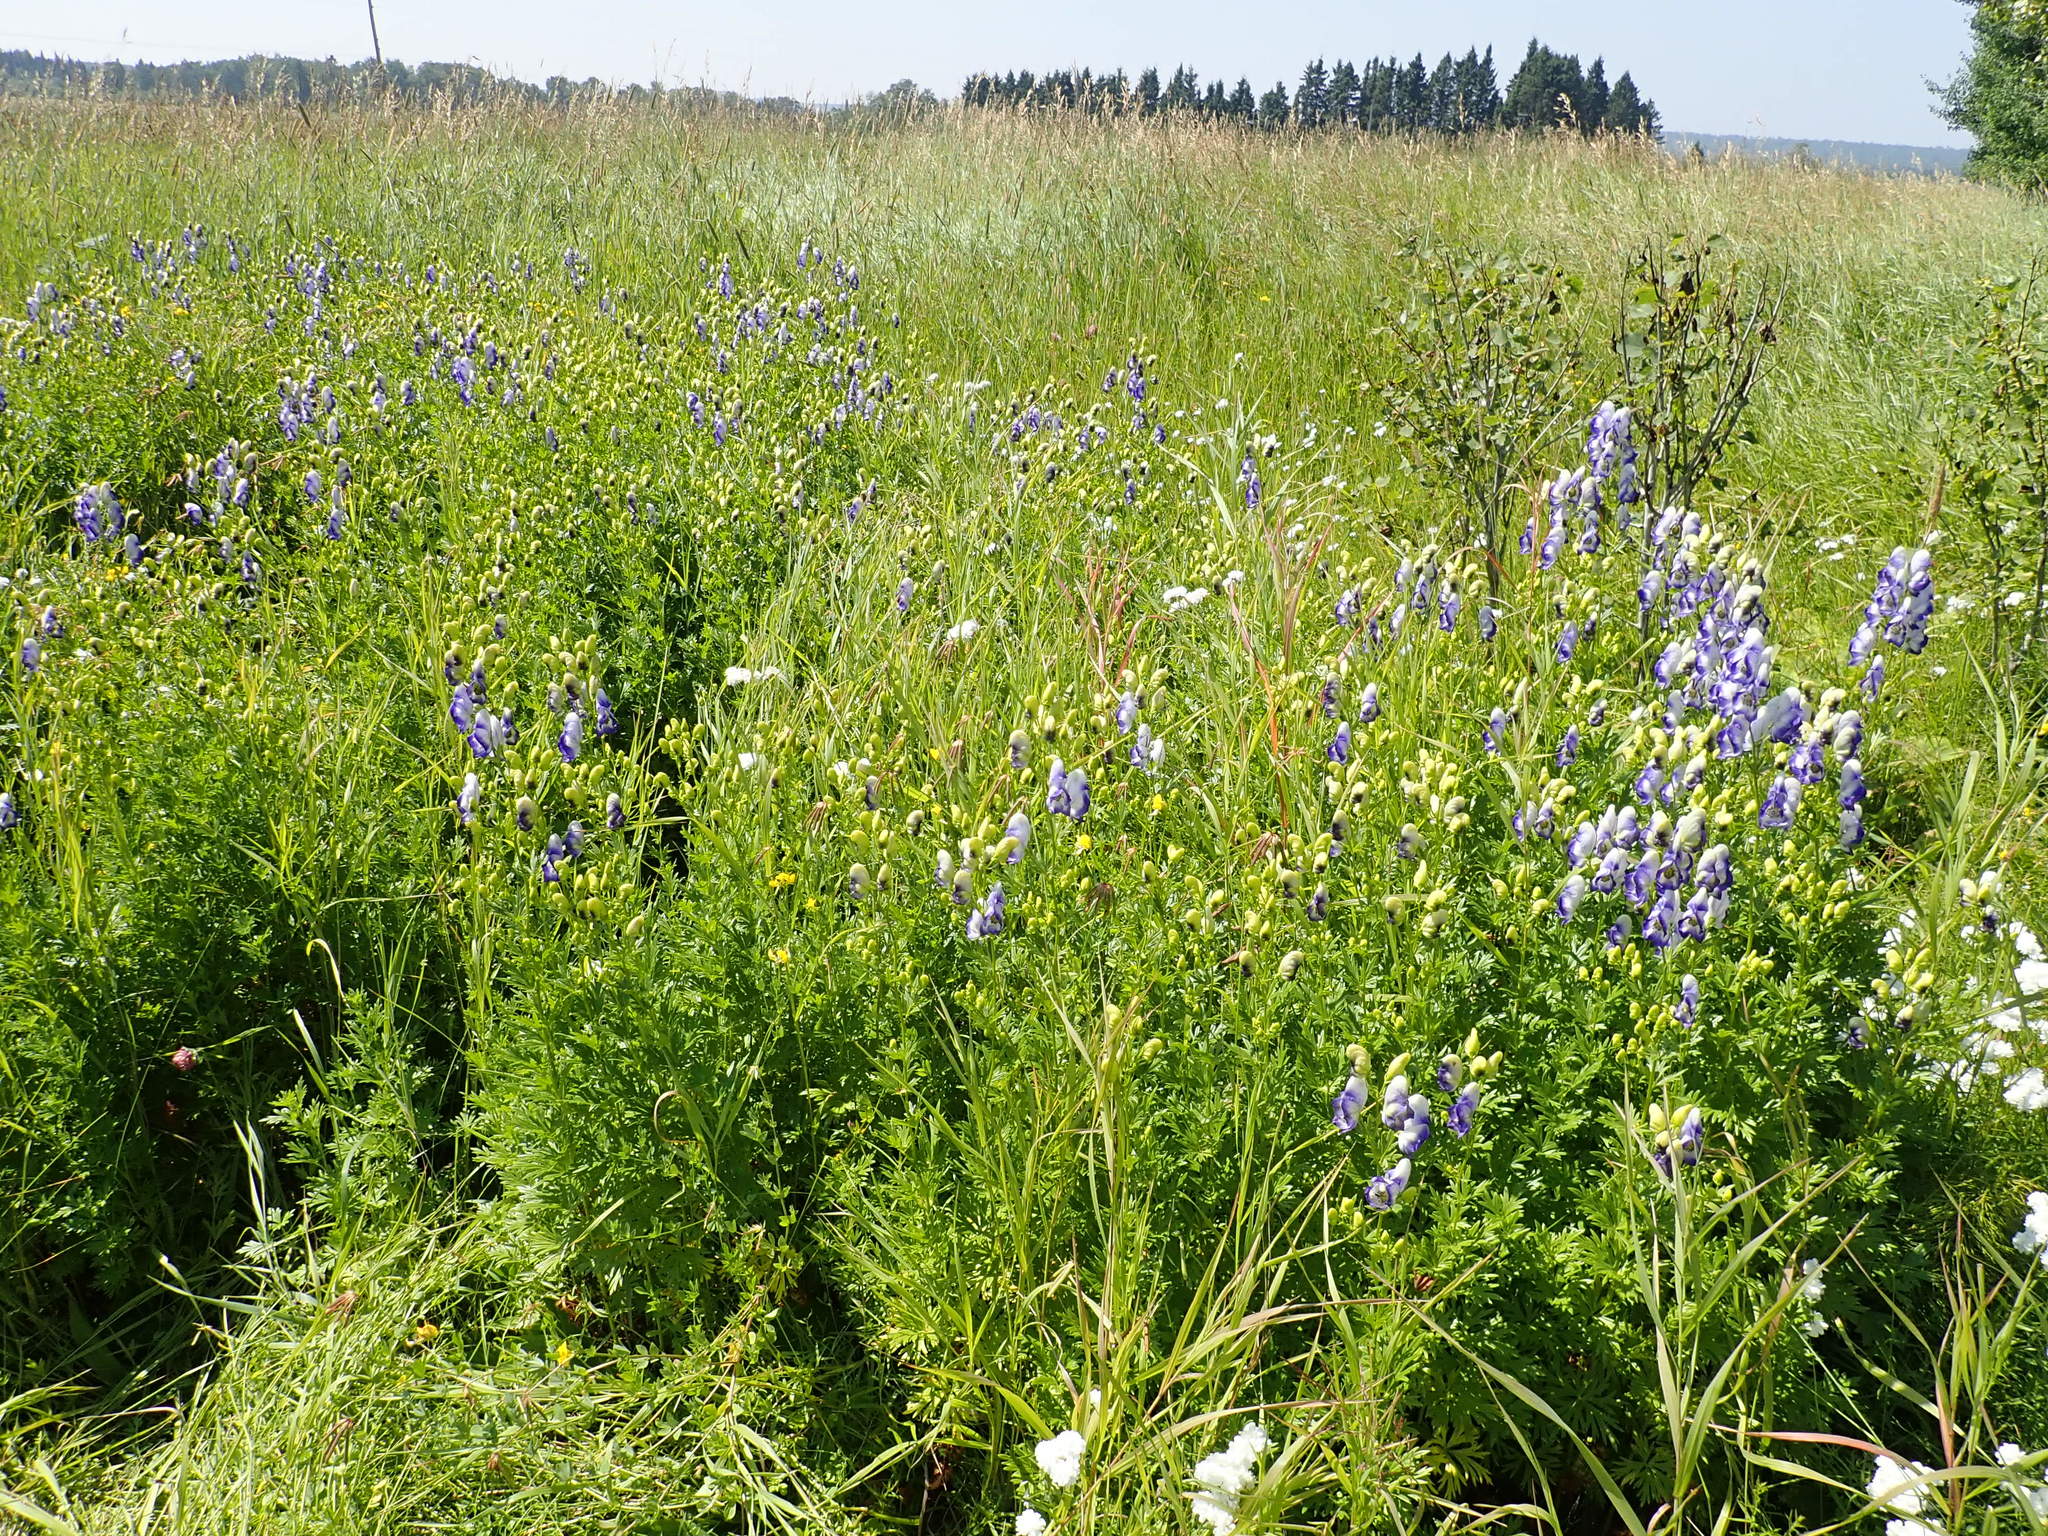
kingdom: Plantae
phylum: Tracheophyta
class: Magnoliopsida
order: Ranunculales
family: Ranunculaceae
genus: Aconitum
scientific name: Aconitum napellus
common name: Garden monkshood
